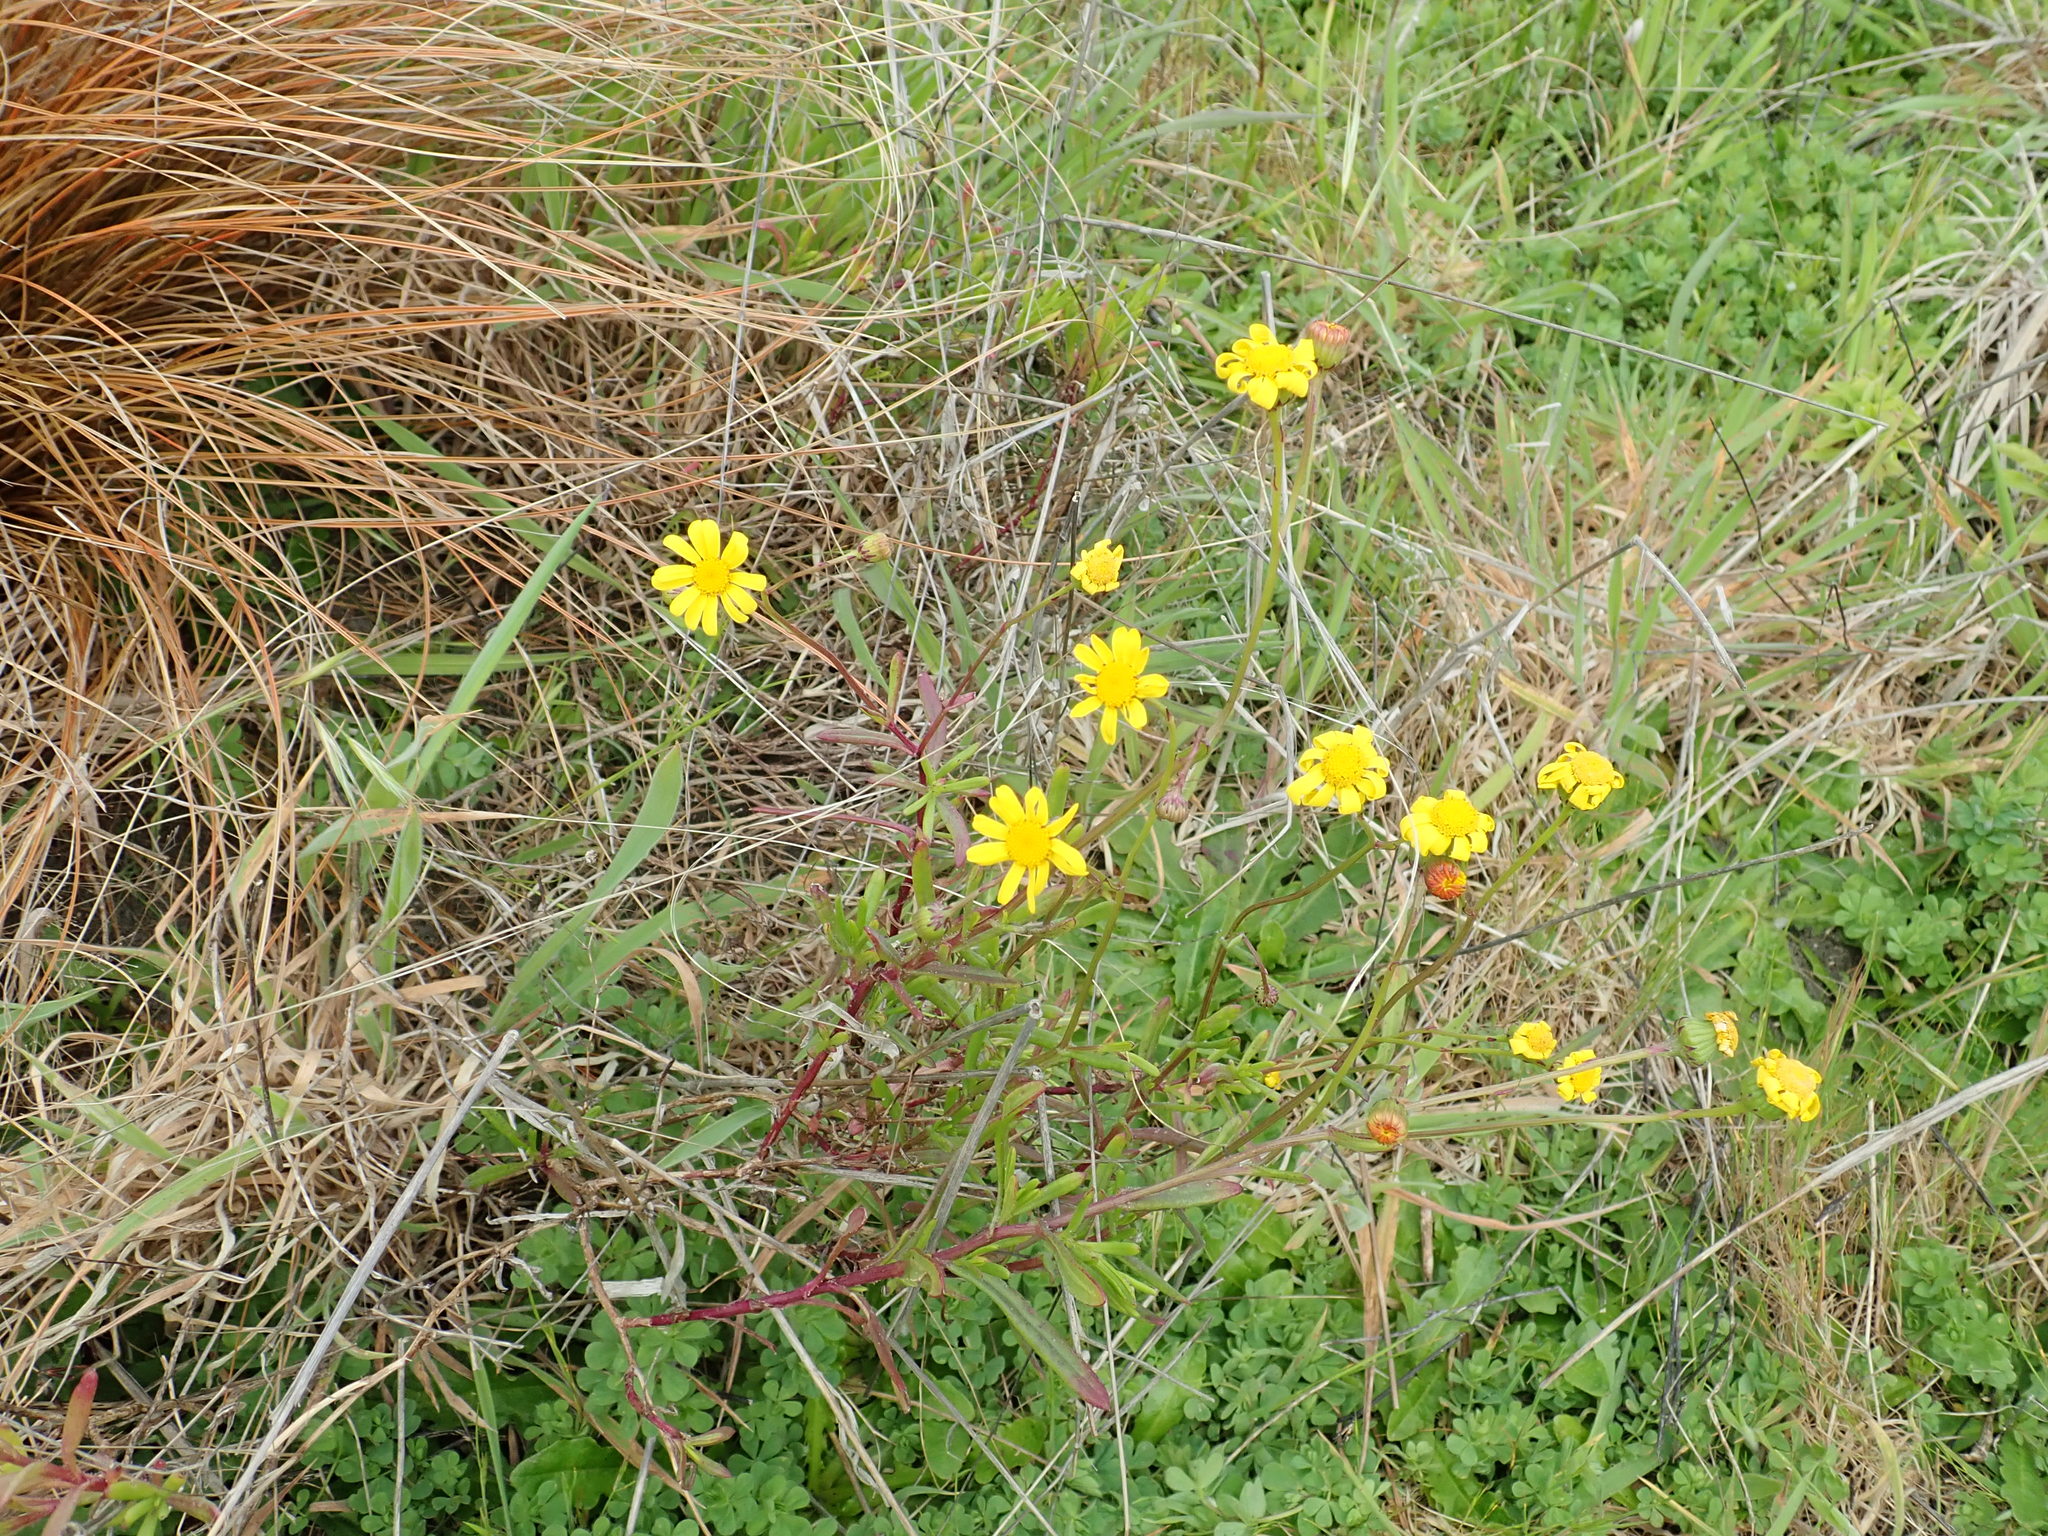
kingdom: Plantae
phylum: Tracheophyta
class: Magnoliopsida
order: Asterales
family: Asteraceae
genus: Senecio
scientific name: Senecio skirrhodon
